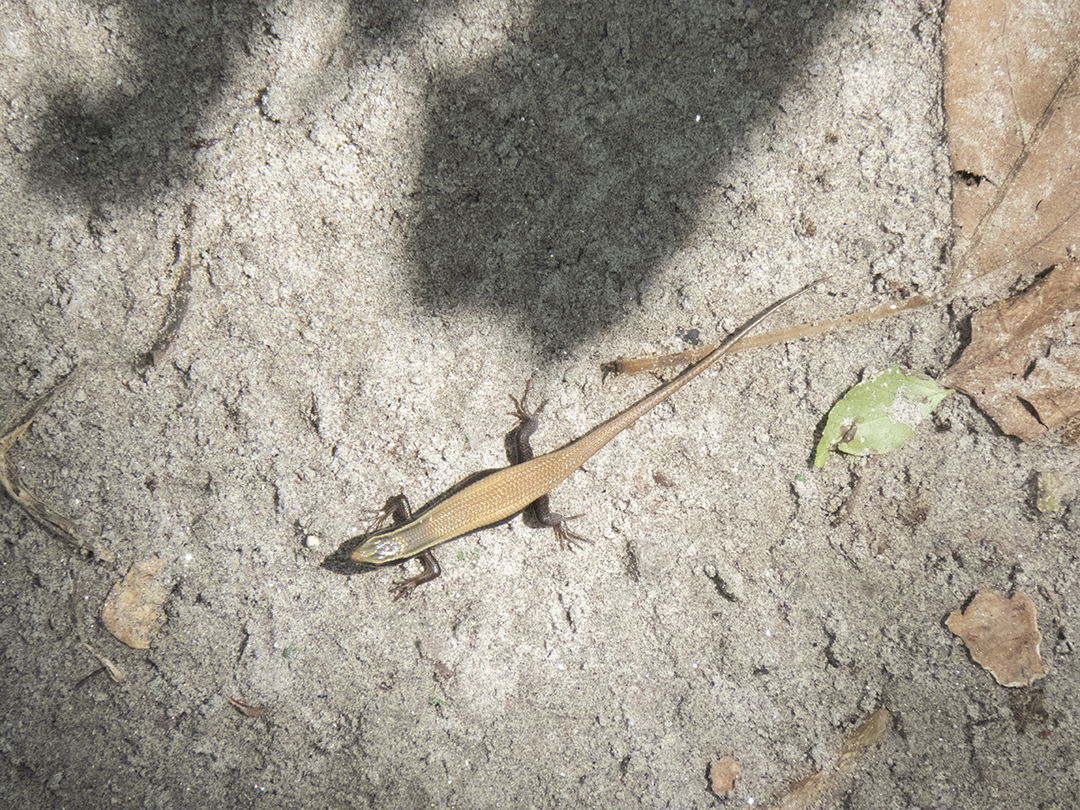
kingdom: Animalia
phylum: Chordata
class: Squamata
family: Scincidae
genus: Eutropis
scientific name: Eutropis carinata
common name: Keeled indian mabuya
